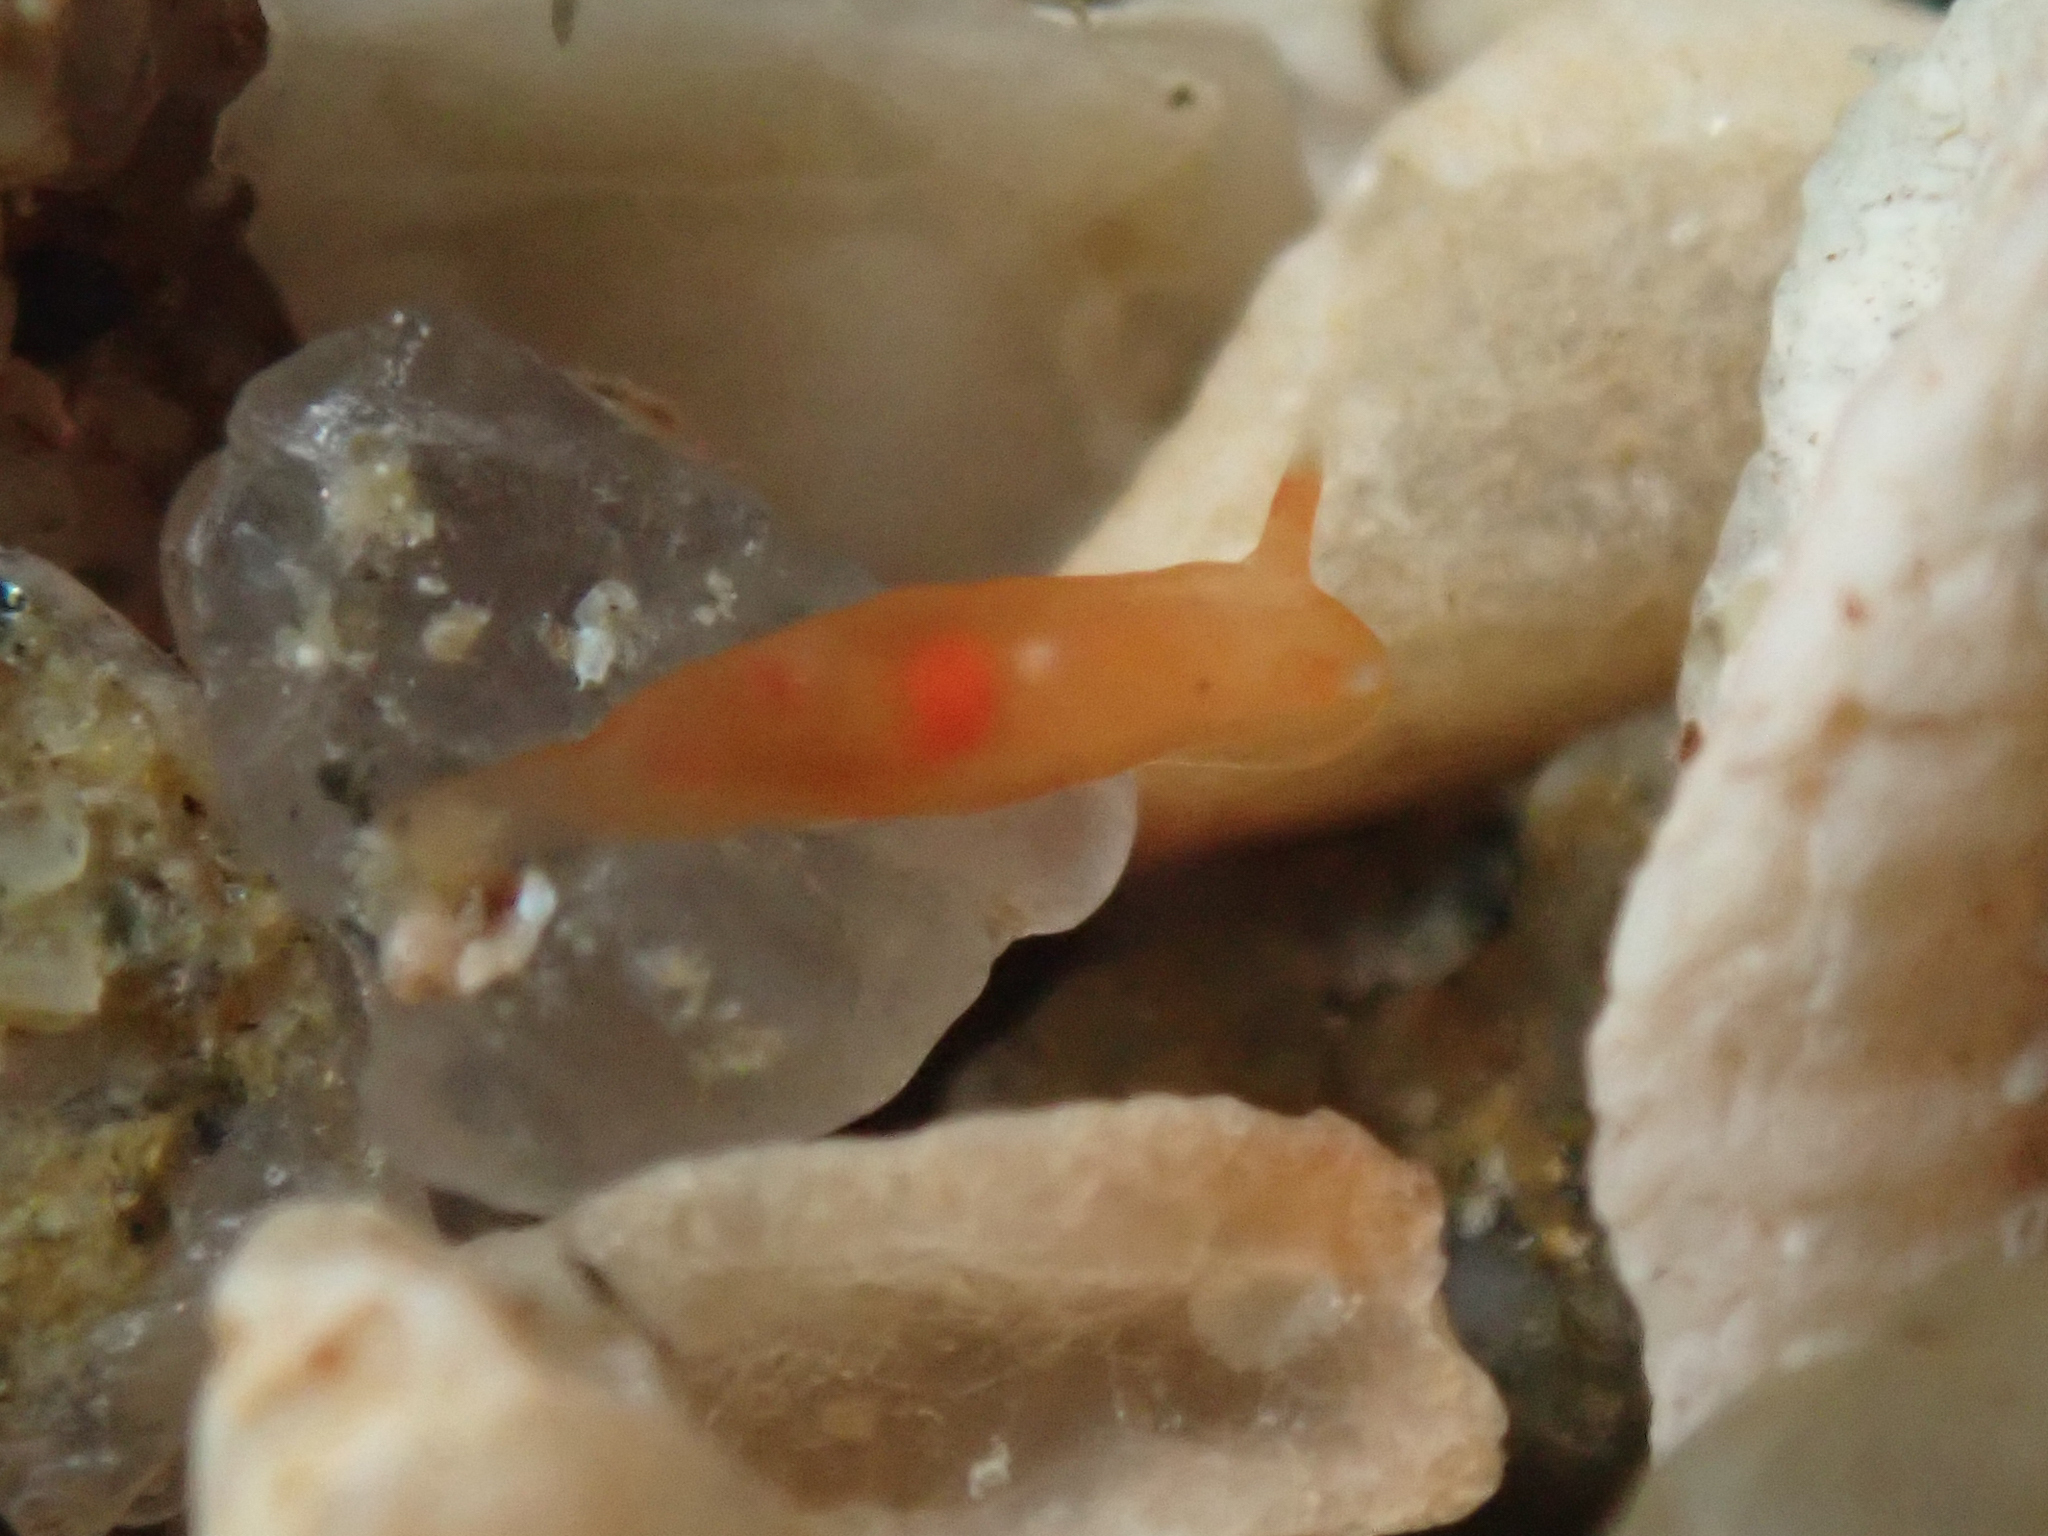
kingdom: Animalia
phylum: Mollusca
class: Gastropoda
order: Nudibranchia
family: Okadaiidae
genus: Vayssierea
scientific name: Vayssierea felis
